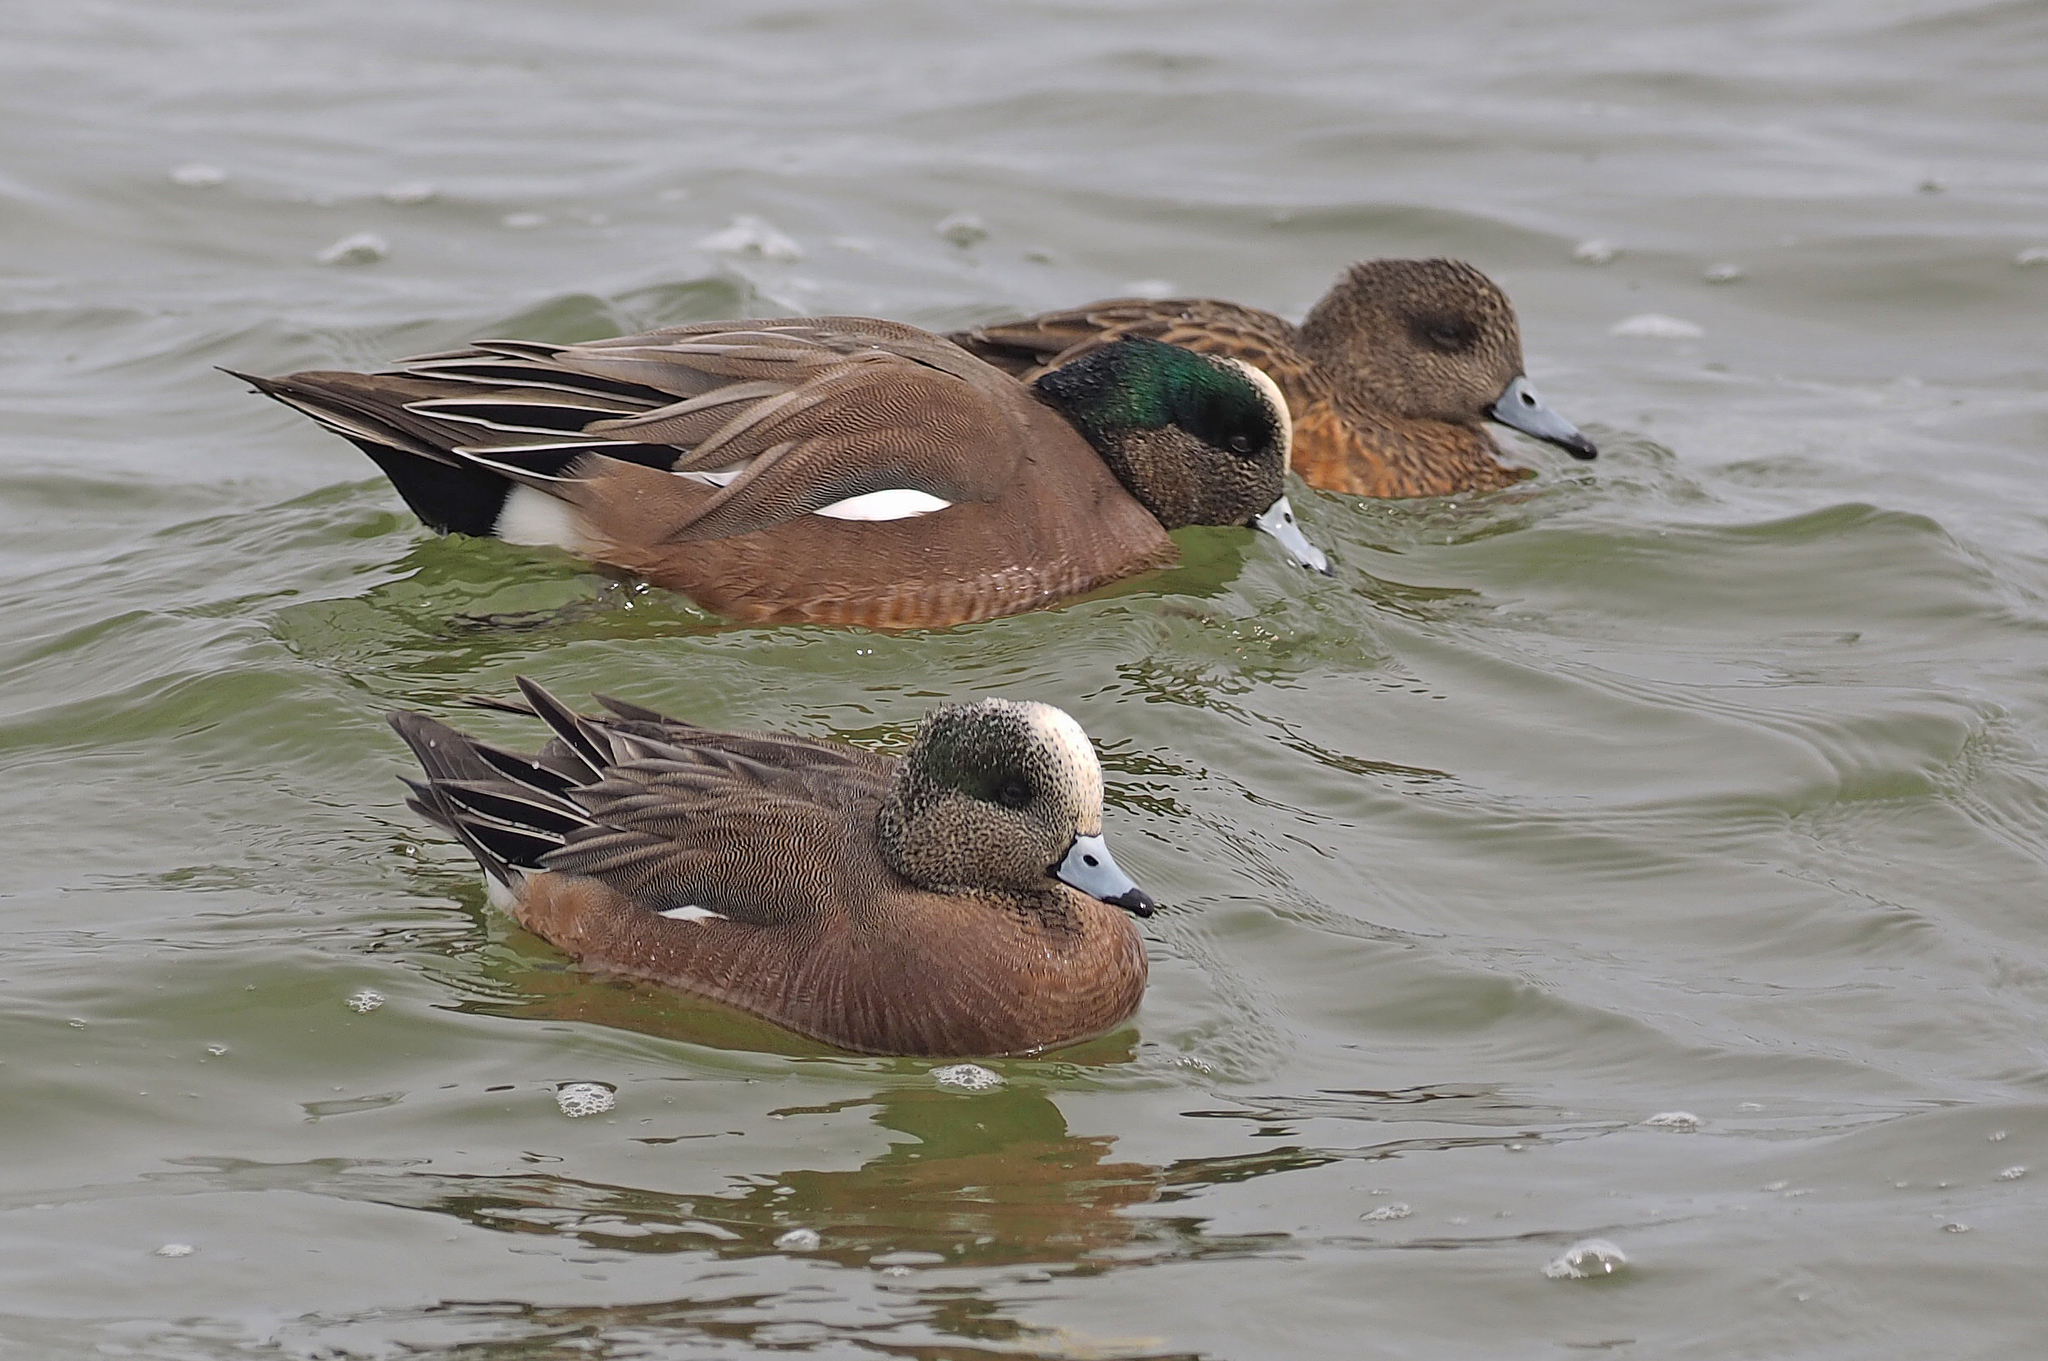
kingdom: Animalia
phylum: Chordata
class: Aves
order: Anseriformes
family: Anatidae
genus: Mareca
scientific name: Mareca americana
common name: American wigeon
